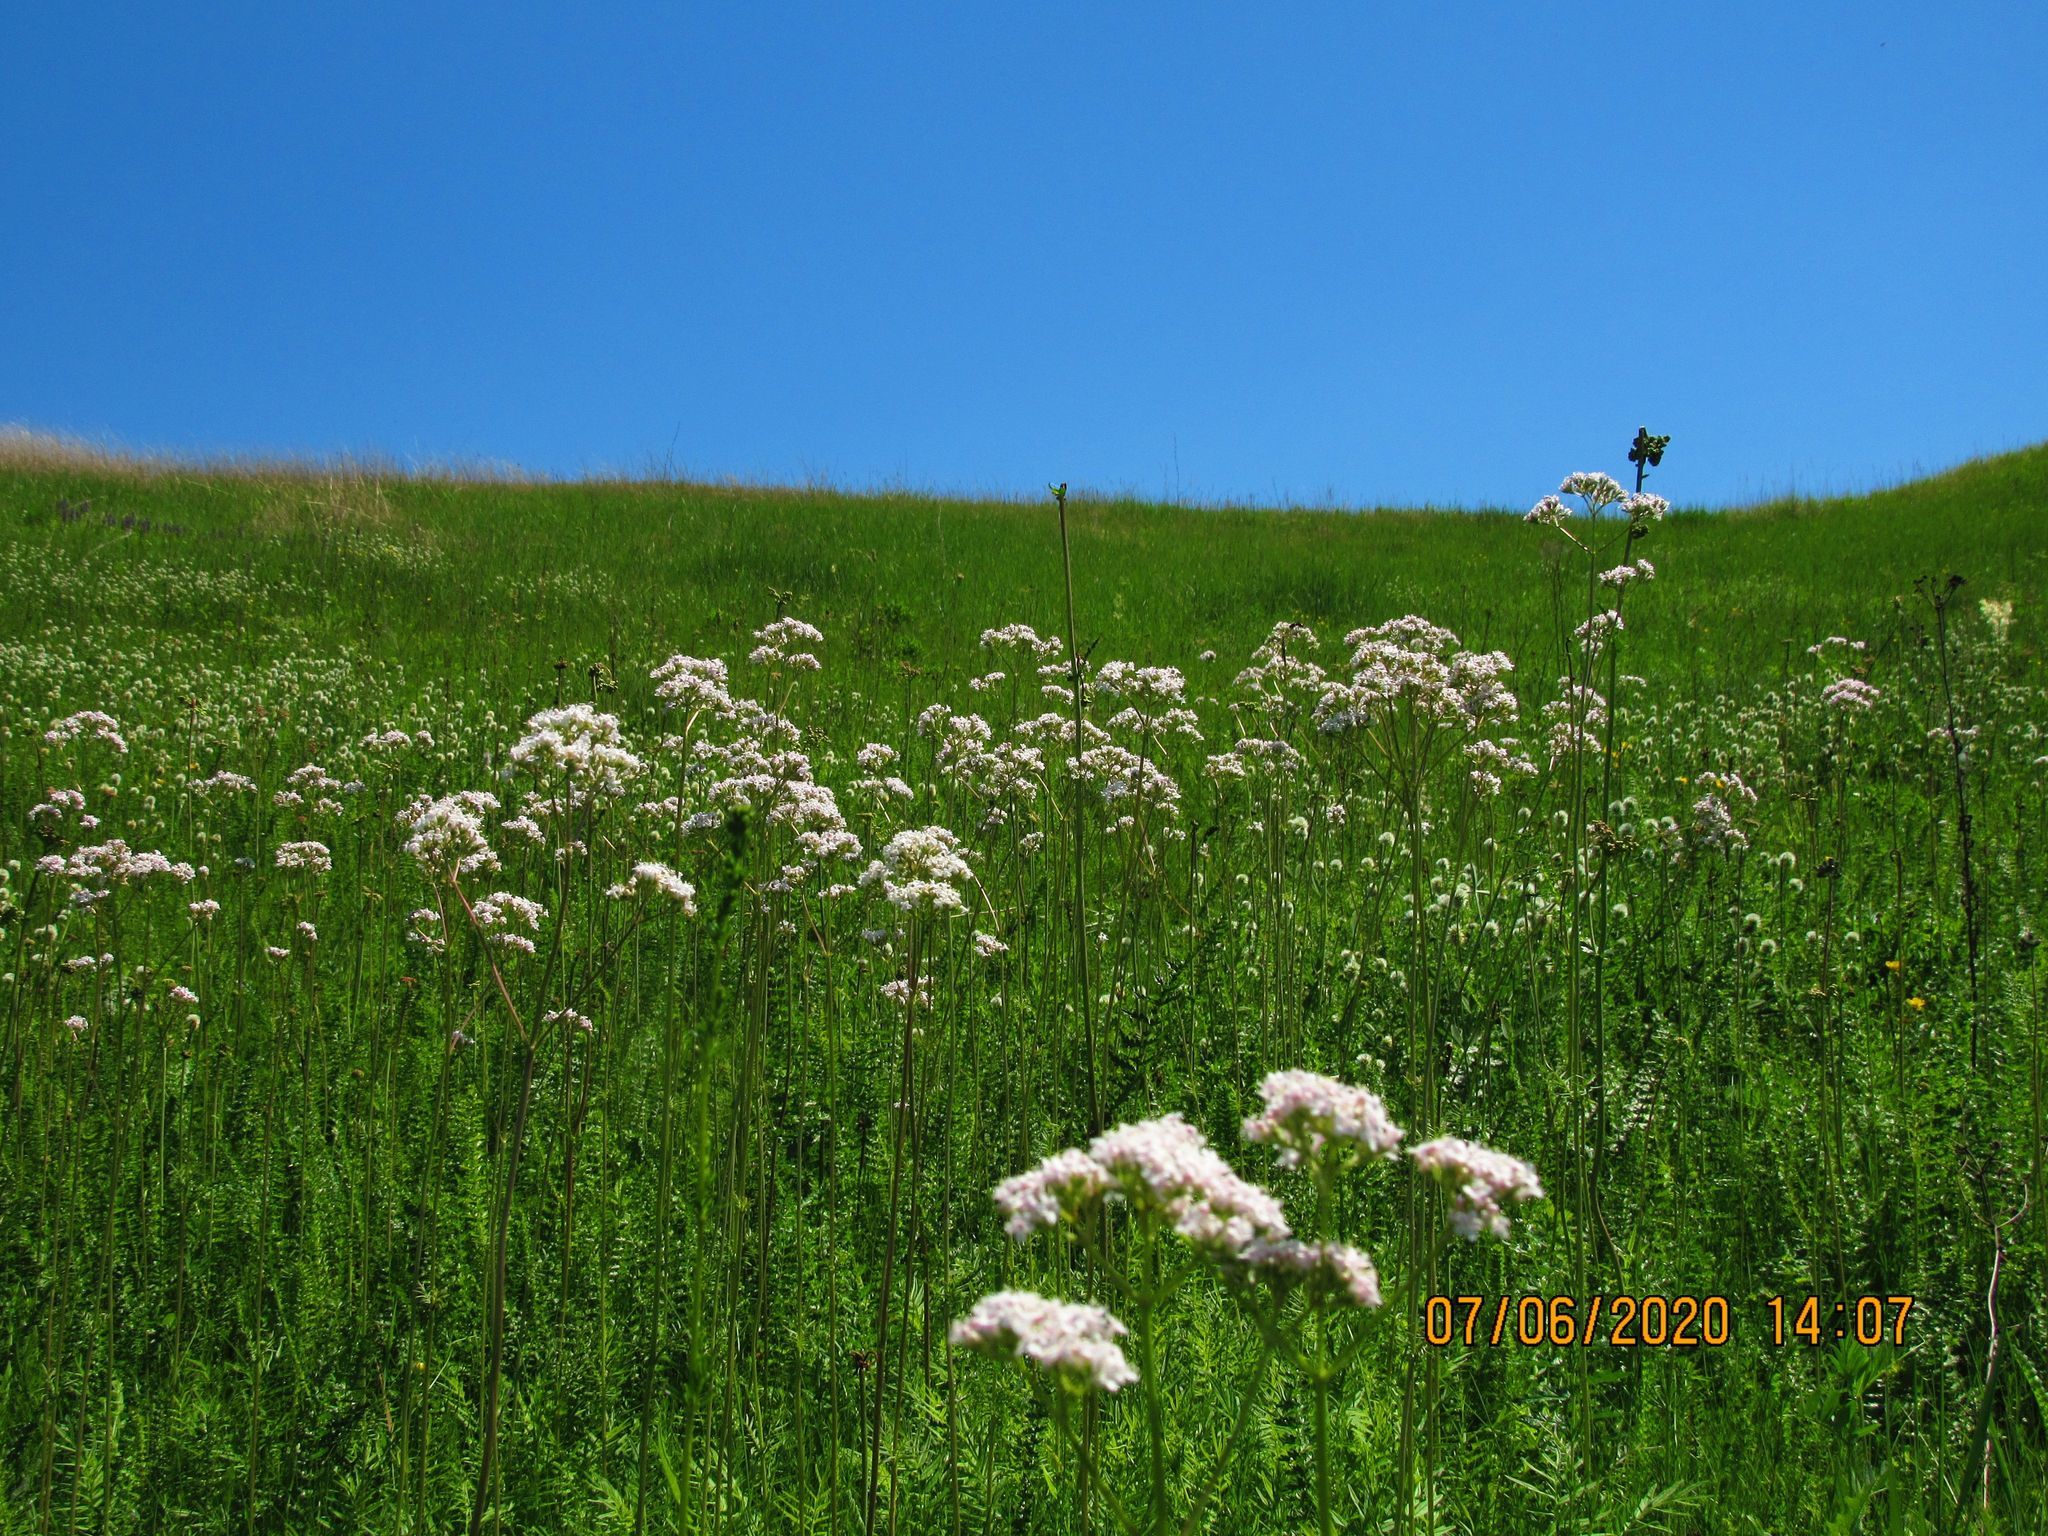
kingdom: Plantae
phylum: Tracheophyta
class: Magnoliopsida
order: Dipsacales
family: Caprifoliaceae
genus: Valeriana
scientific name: Valeriana officinalis
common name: Common valerian
